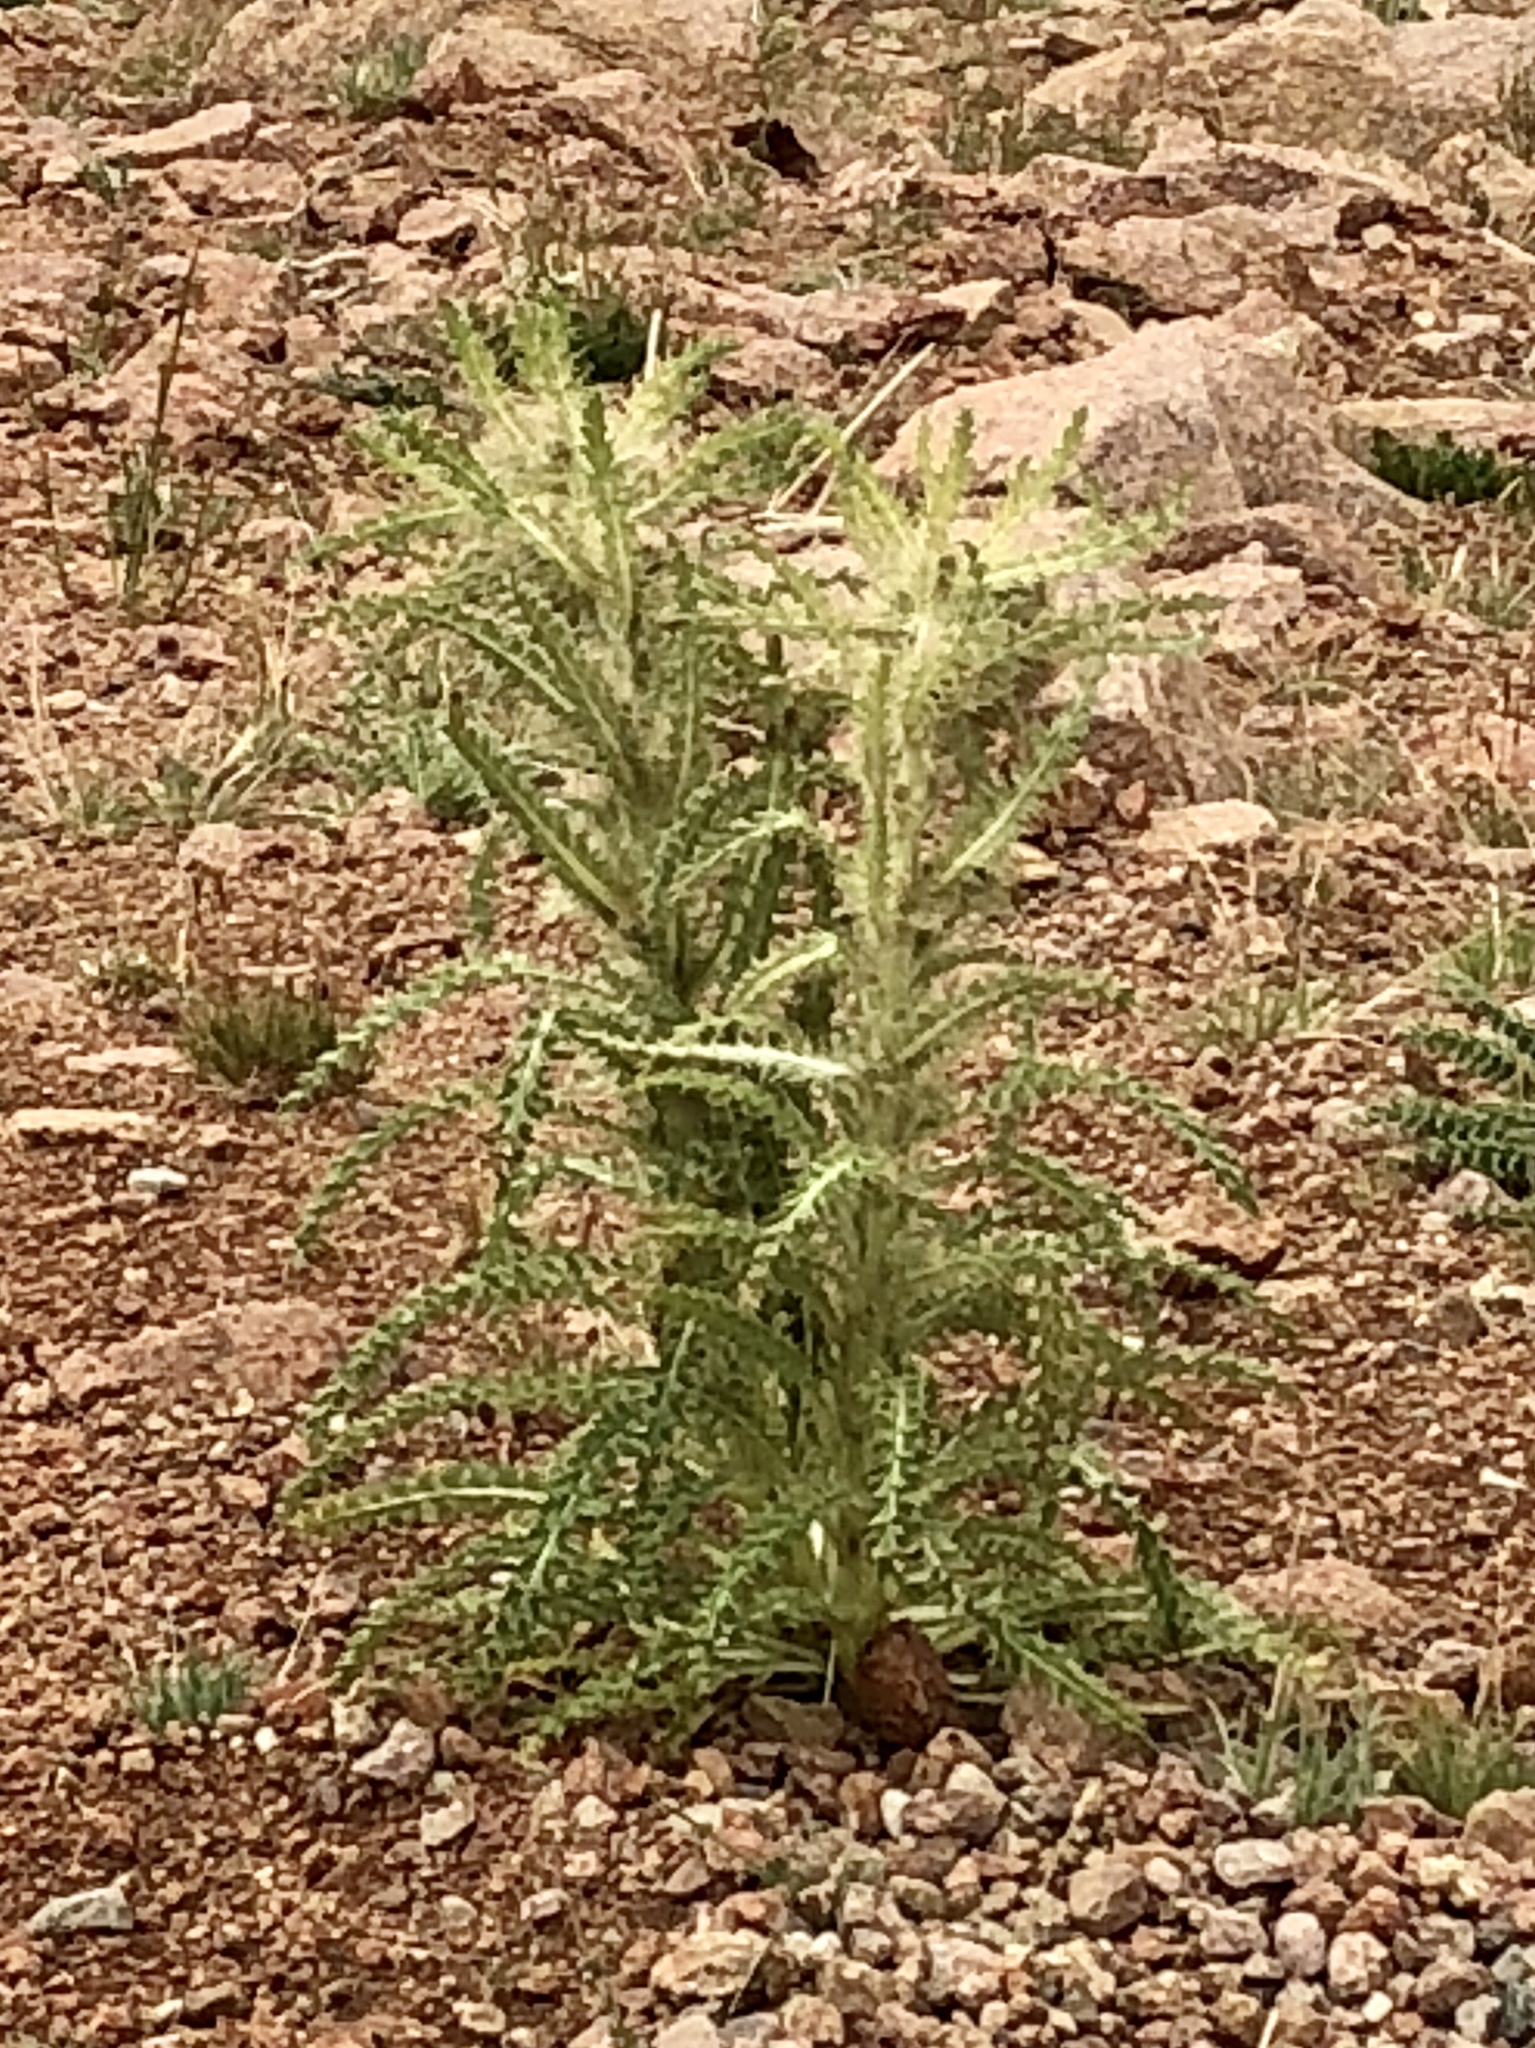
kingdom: Plantae
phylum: Tracheophyta
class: Magnoliopsida
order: Asterales
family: Asteraceae
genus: Cirsium
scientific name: Cirsium scopulorum
